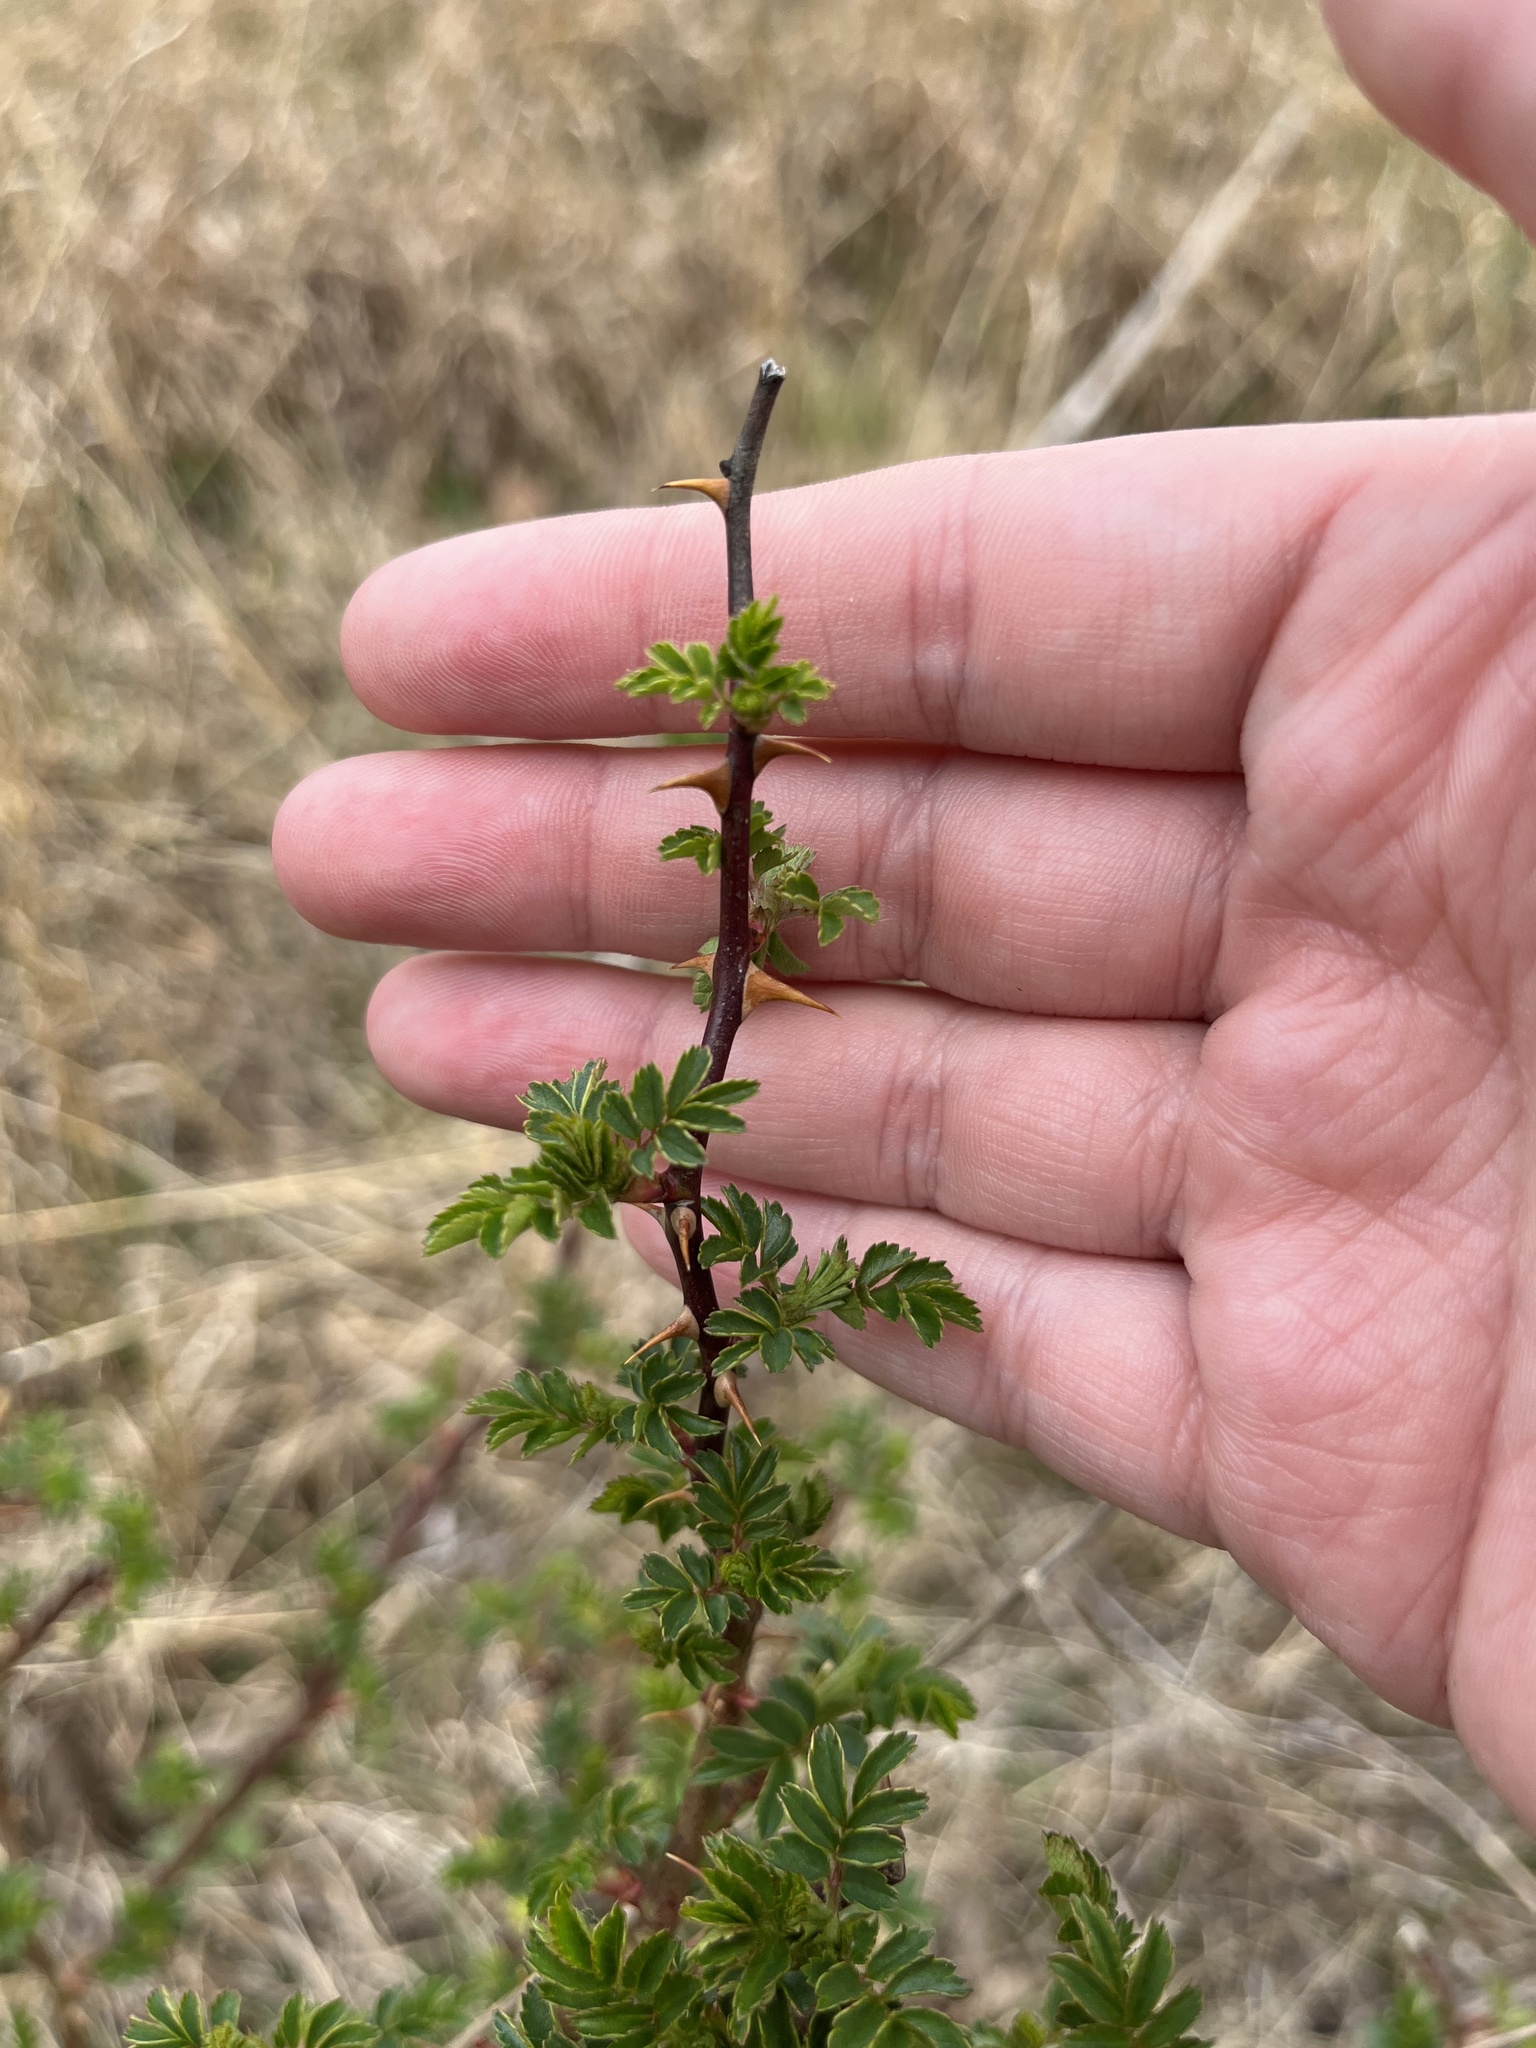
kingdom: Plantae
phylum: Tracheophyta
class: Magnoliopsida
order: Rosales
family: Rosaceae
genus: Rosa
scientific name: Rosa multiflora
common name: Multiflora rose
